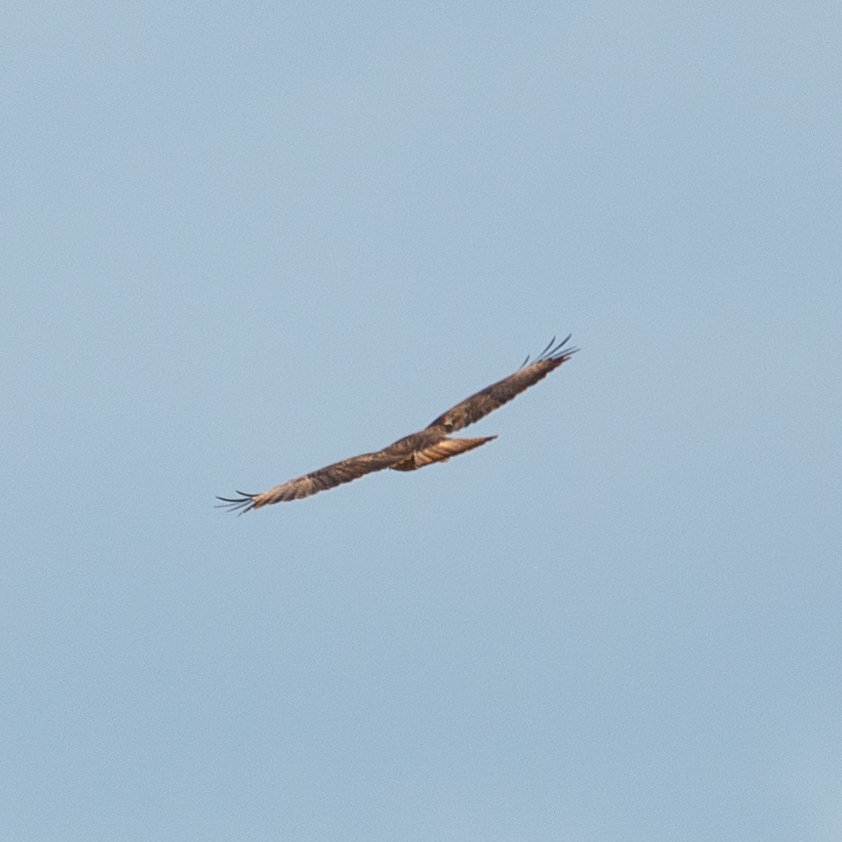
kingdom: Animalia
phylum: Chordata
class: Aves
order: Accipitriformes
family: Accipitridae
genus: Buteo
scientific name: Buteo buteo
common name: Common buzzard
